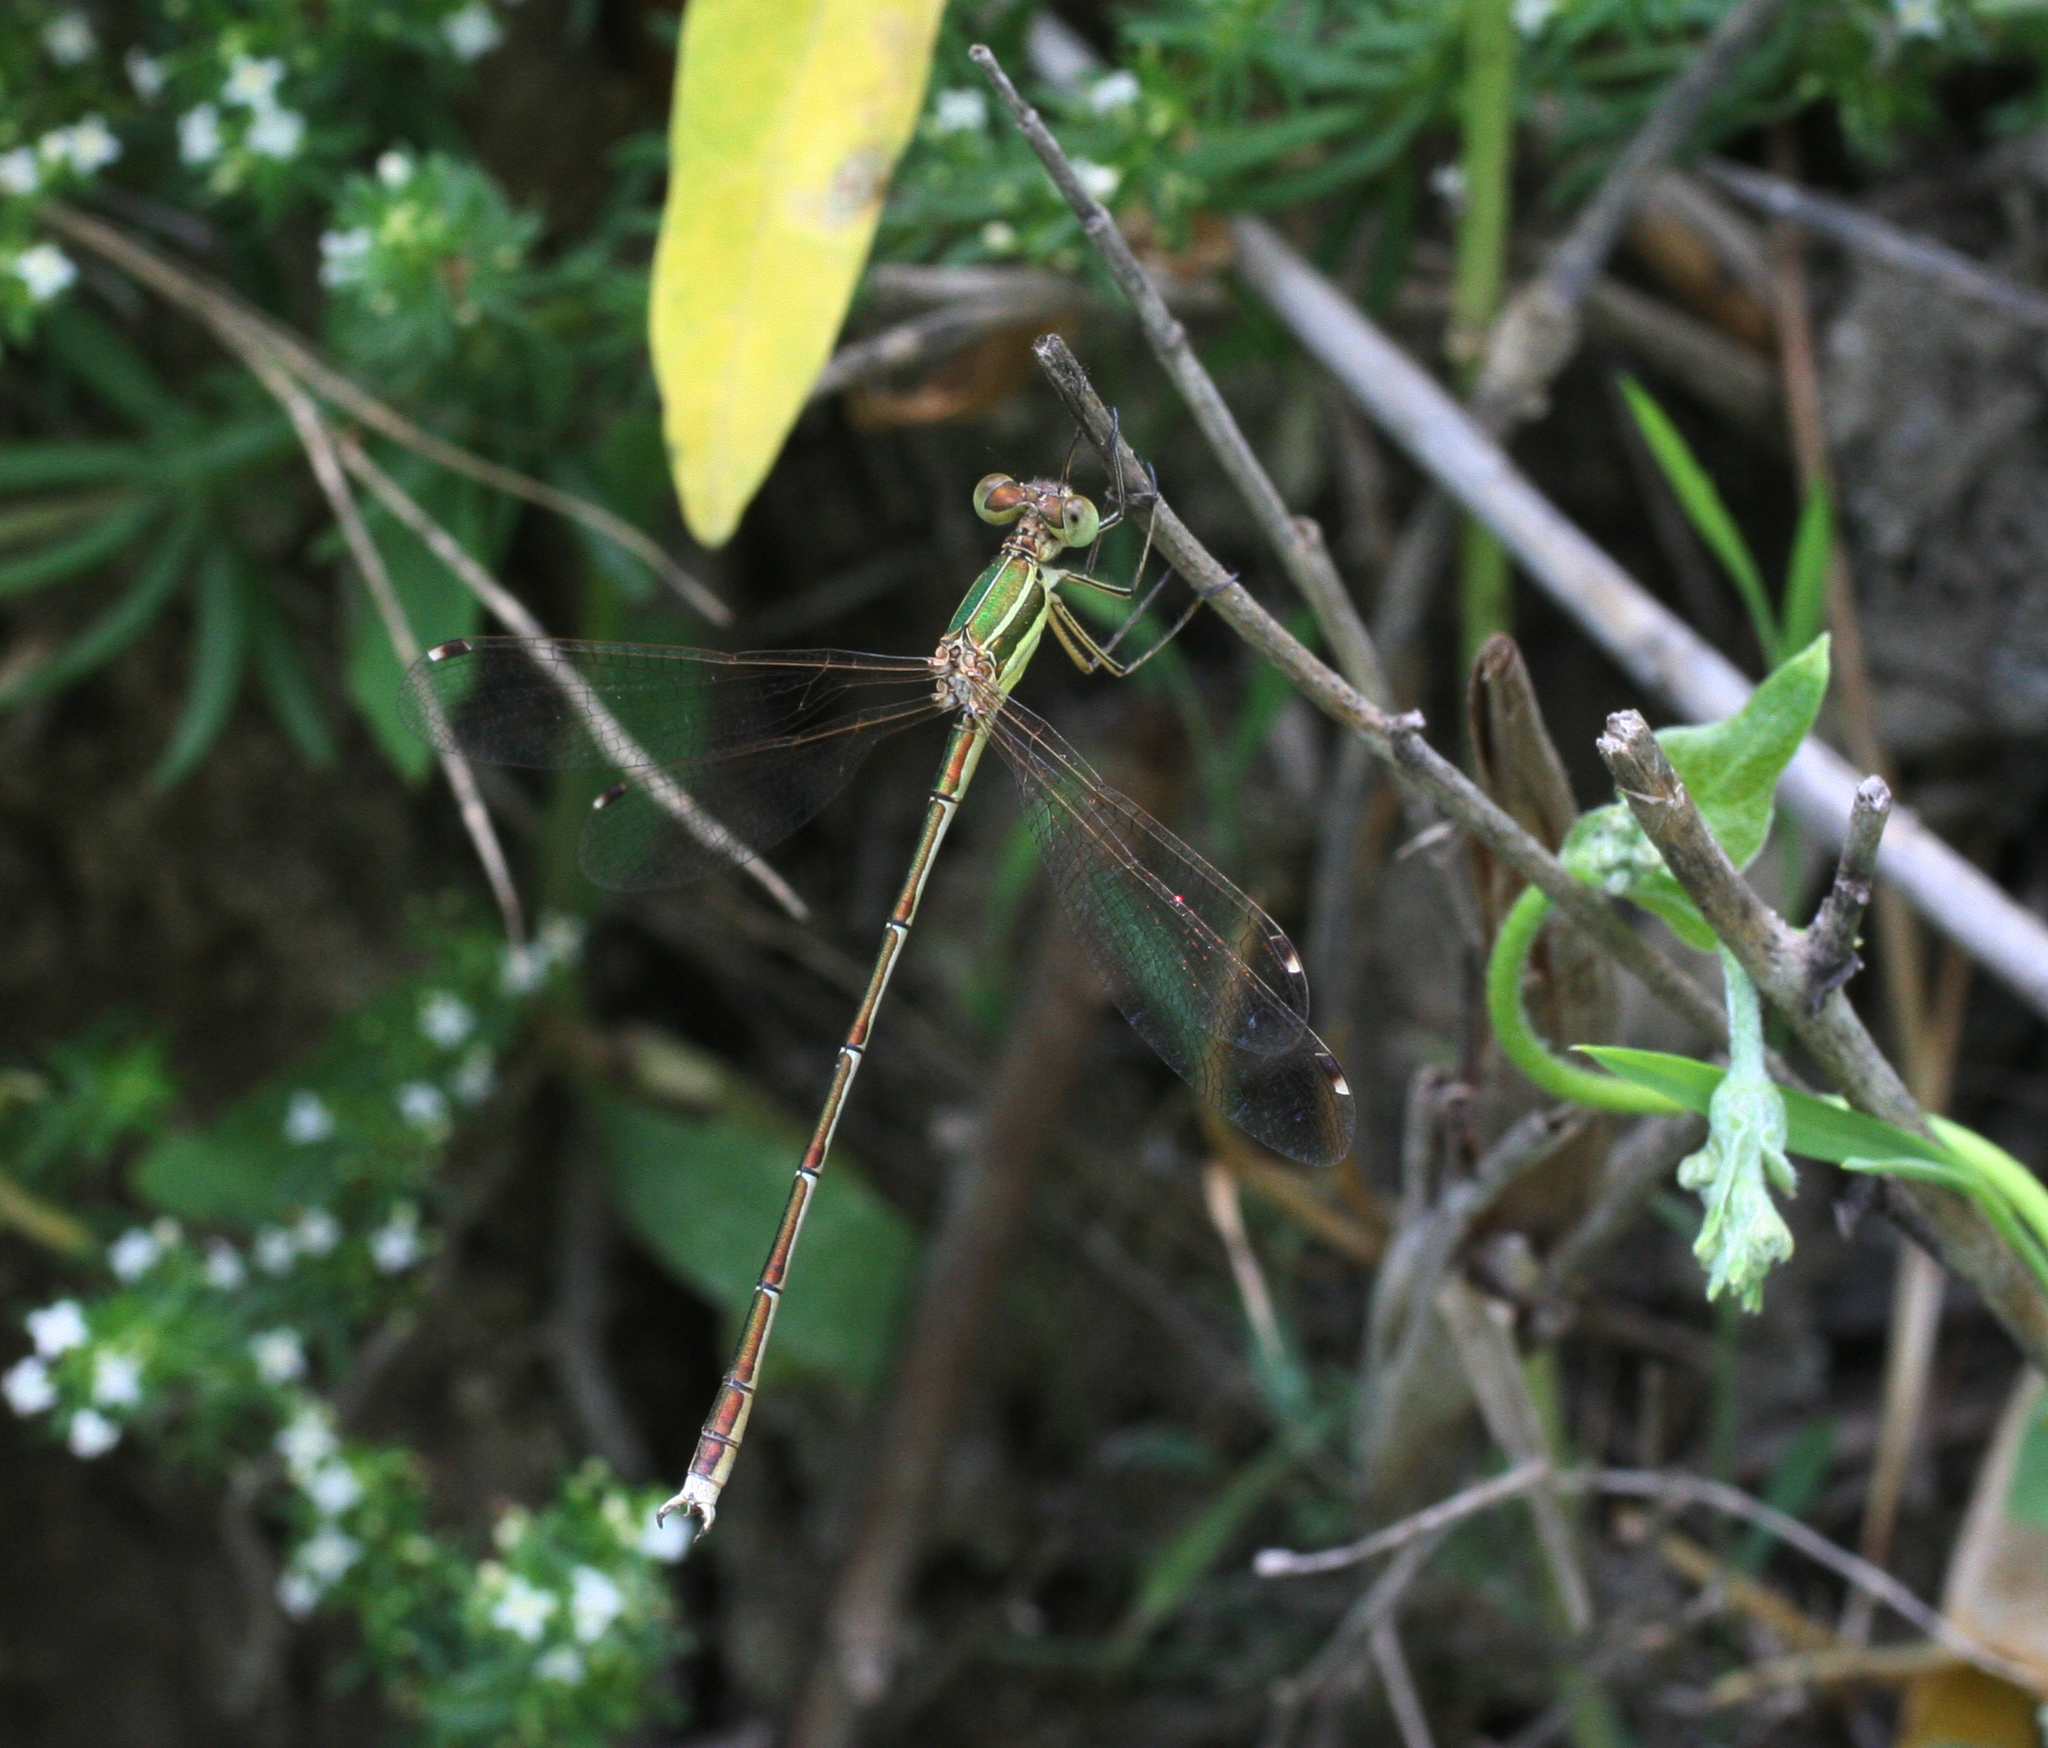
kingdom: Animalia
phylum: Arthropoda
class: Insecta
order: Odonata
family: Lestidae
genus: Lestes
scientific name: Lestes barbarus
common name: Migrant spreadwing
